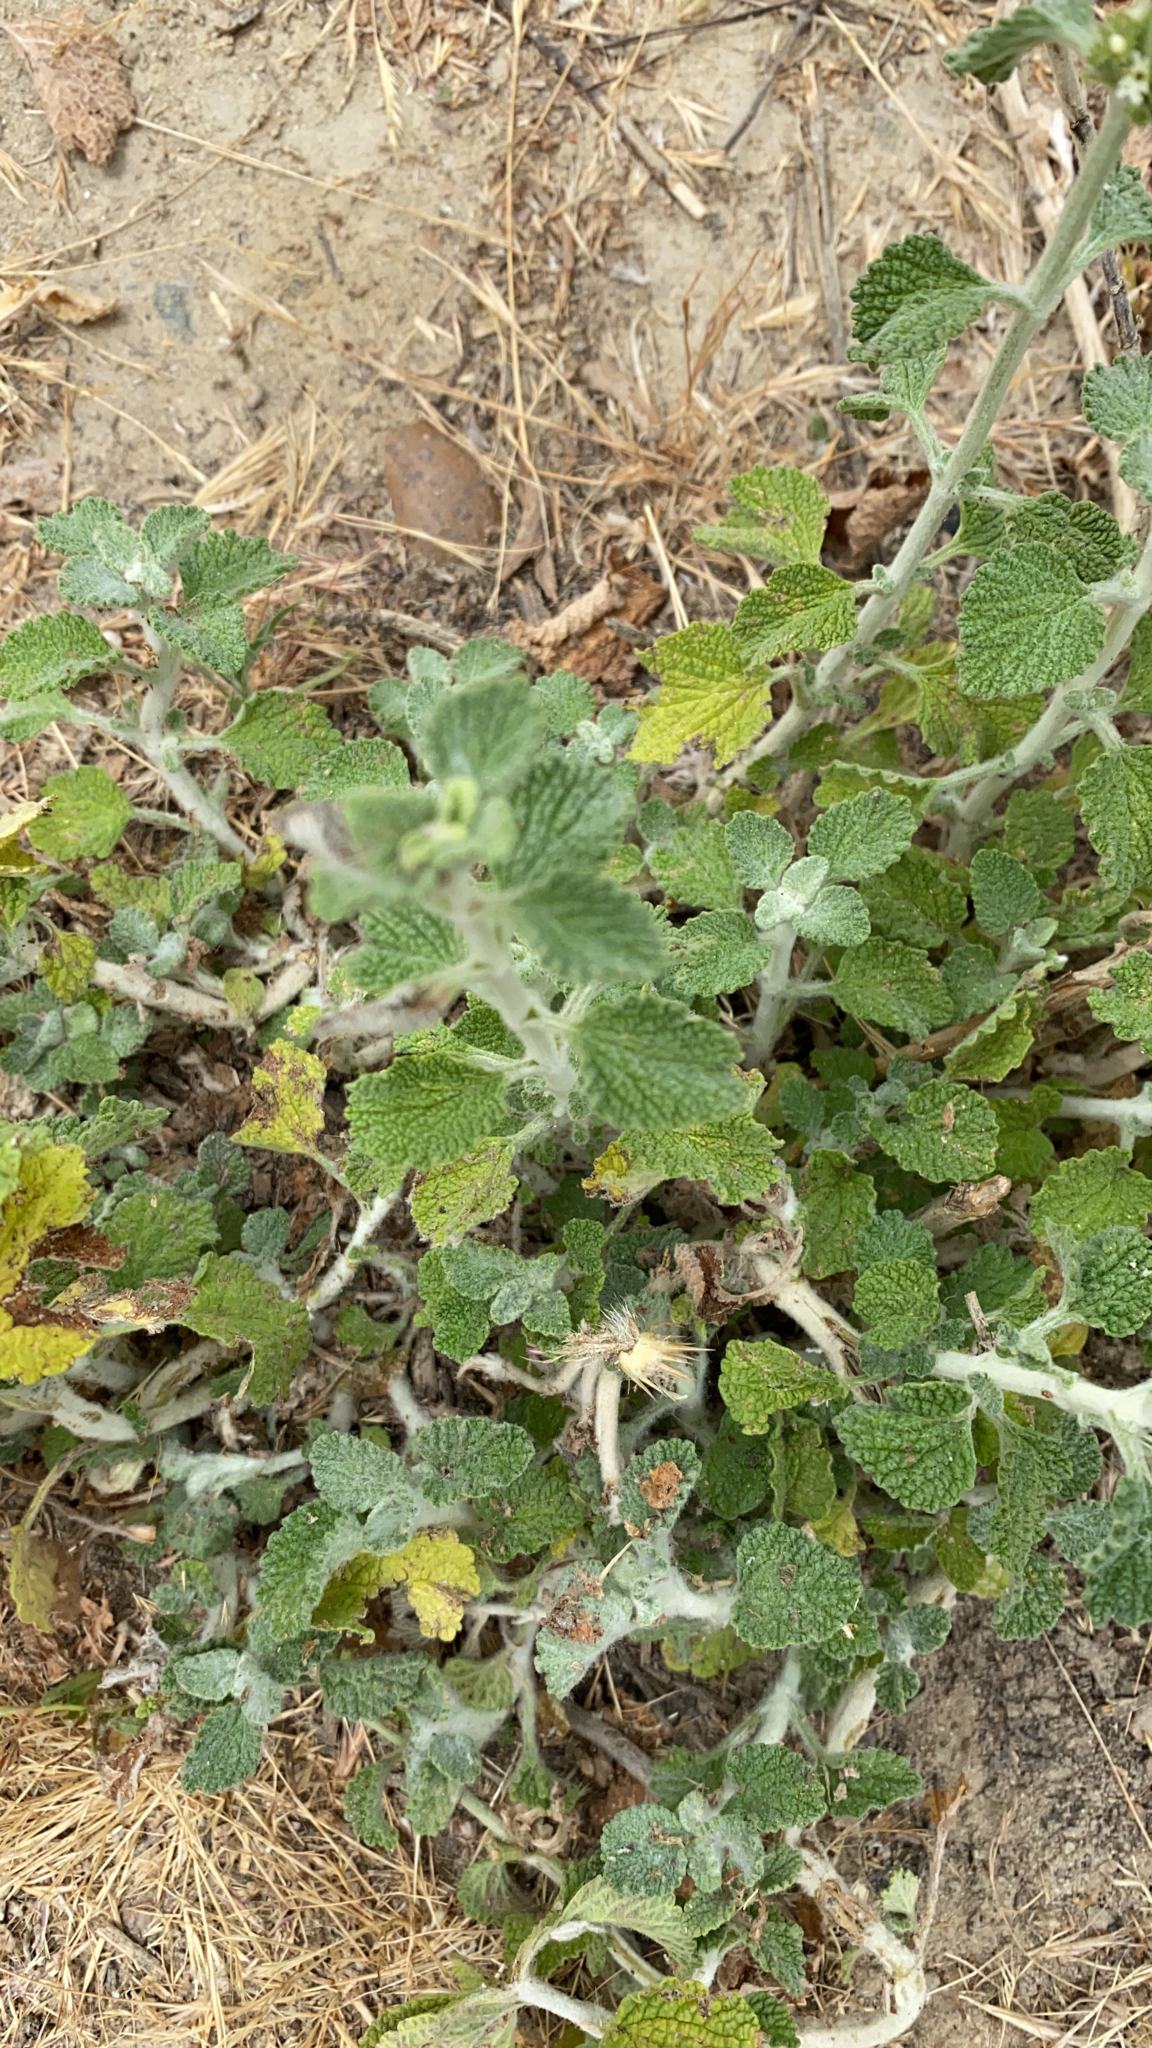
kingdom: Plantae
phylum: Tracheophyta
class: Magnoliopsida
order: Lamiales
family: Lamiaceae
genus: Marrubium
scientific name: Marrubium vulgare
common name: Horehound
